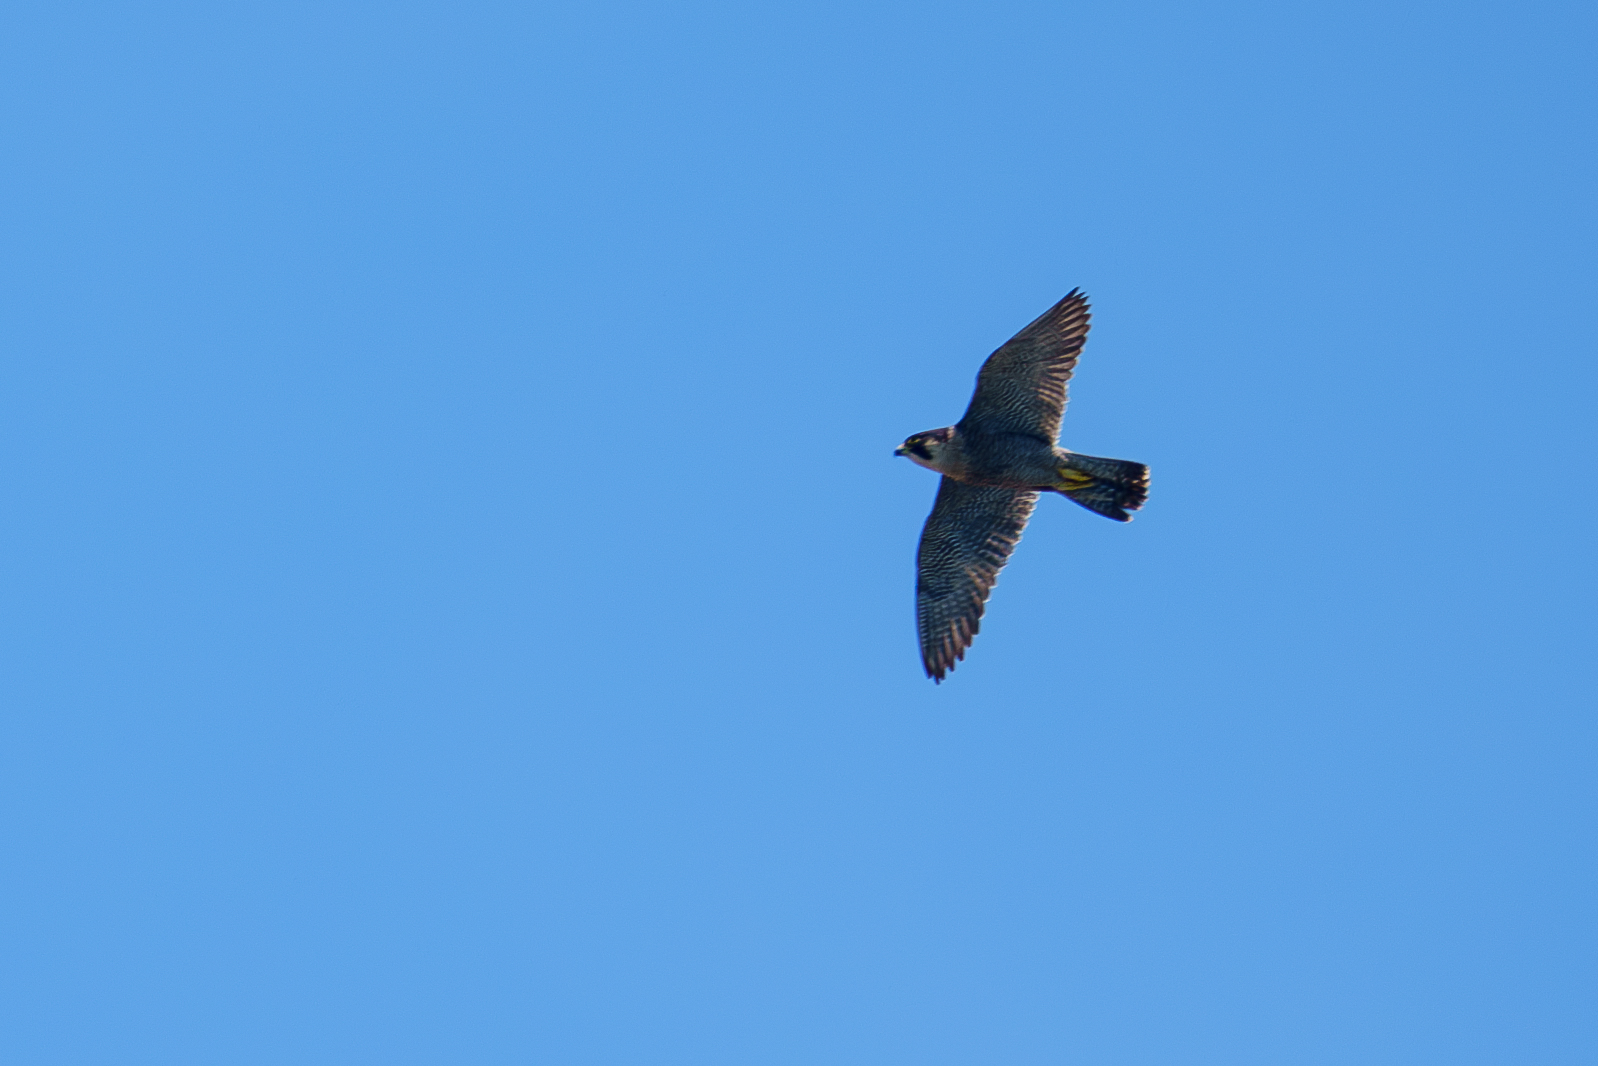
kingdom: Animalia
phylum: Chordata
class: Aves
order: Falconiformes
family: Falconidae
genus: Falco
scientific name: Falco peregrinus
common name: Peregrine falcon
